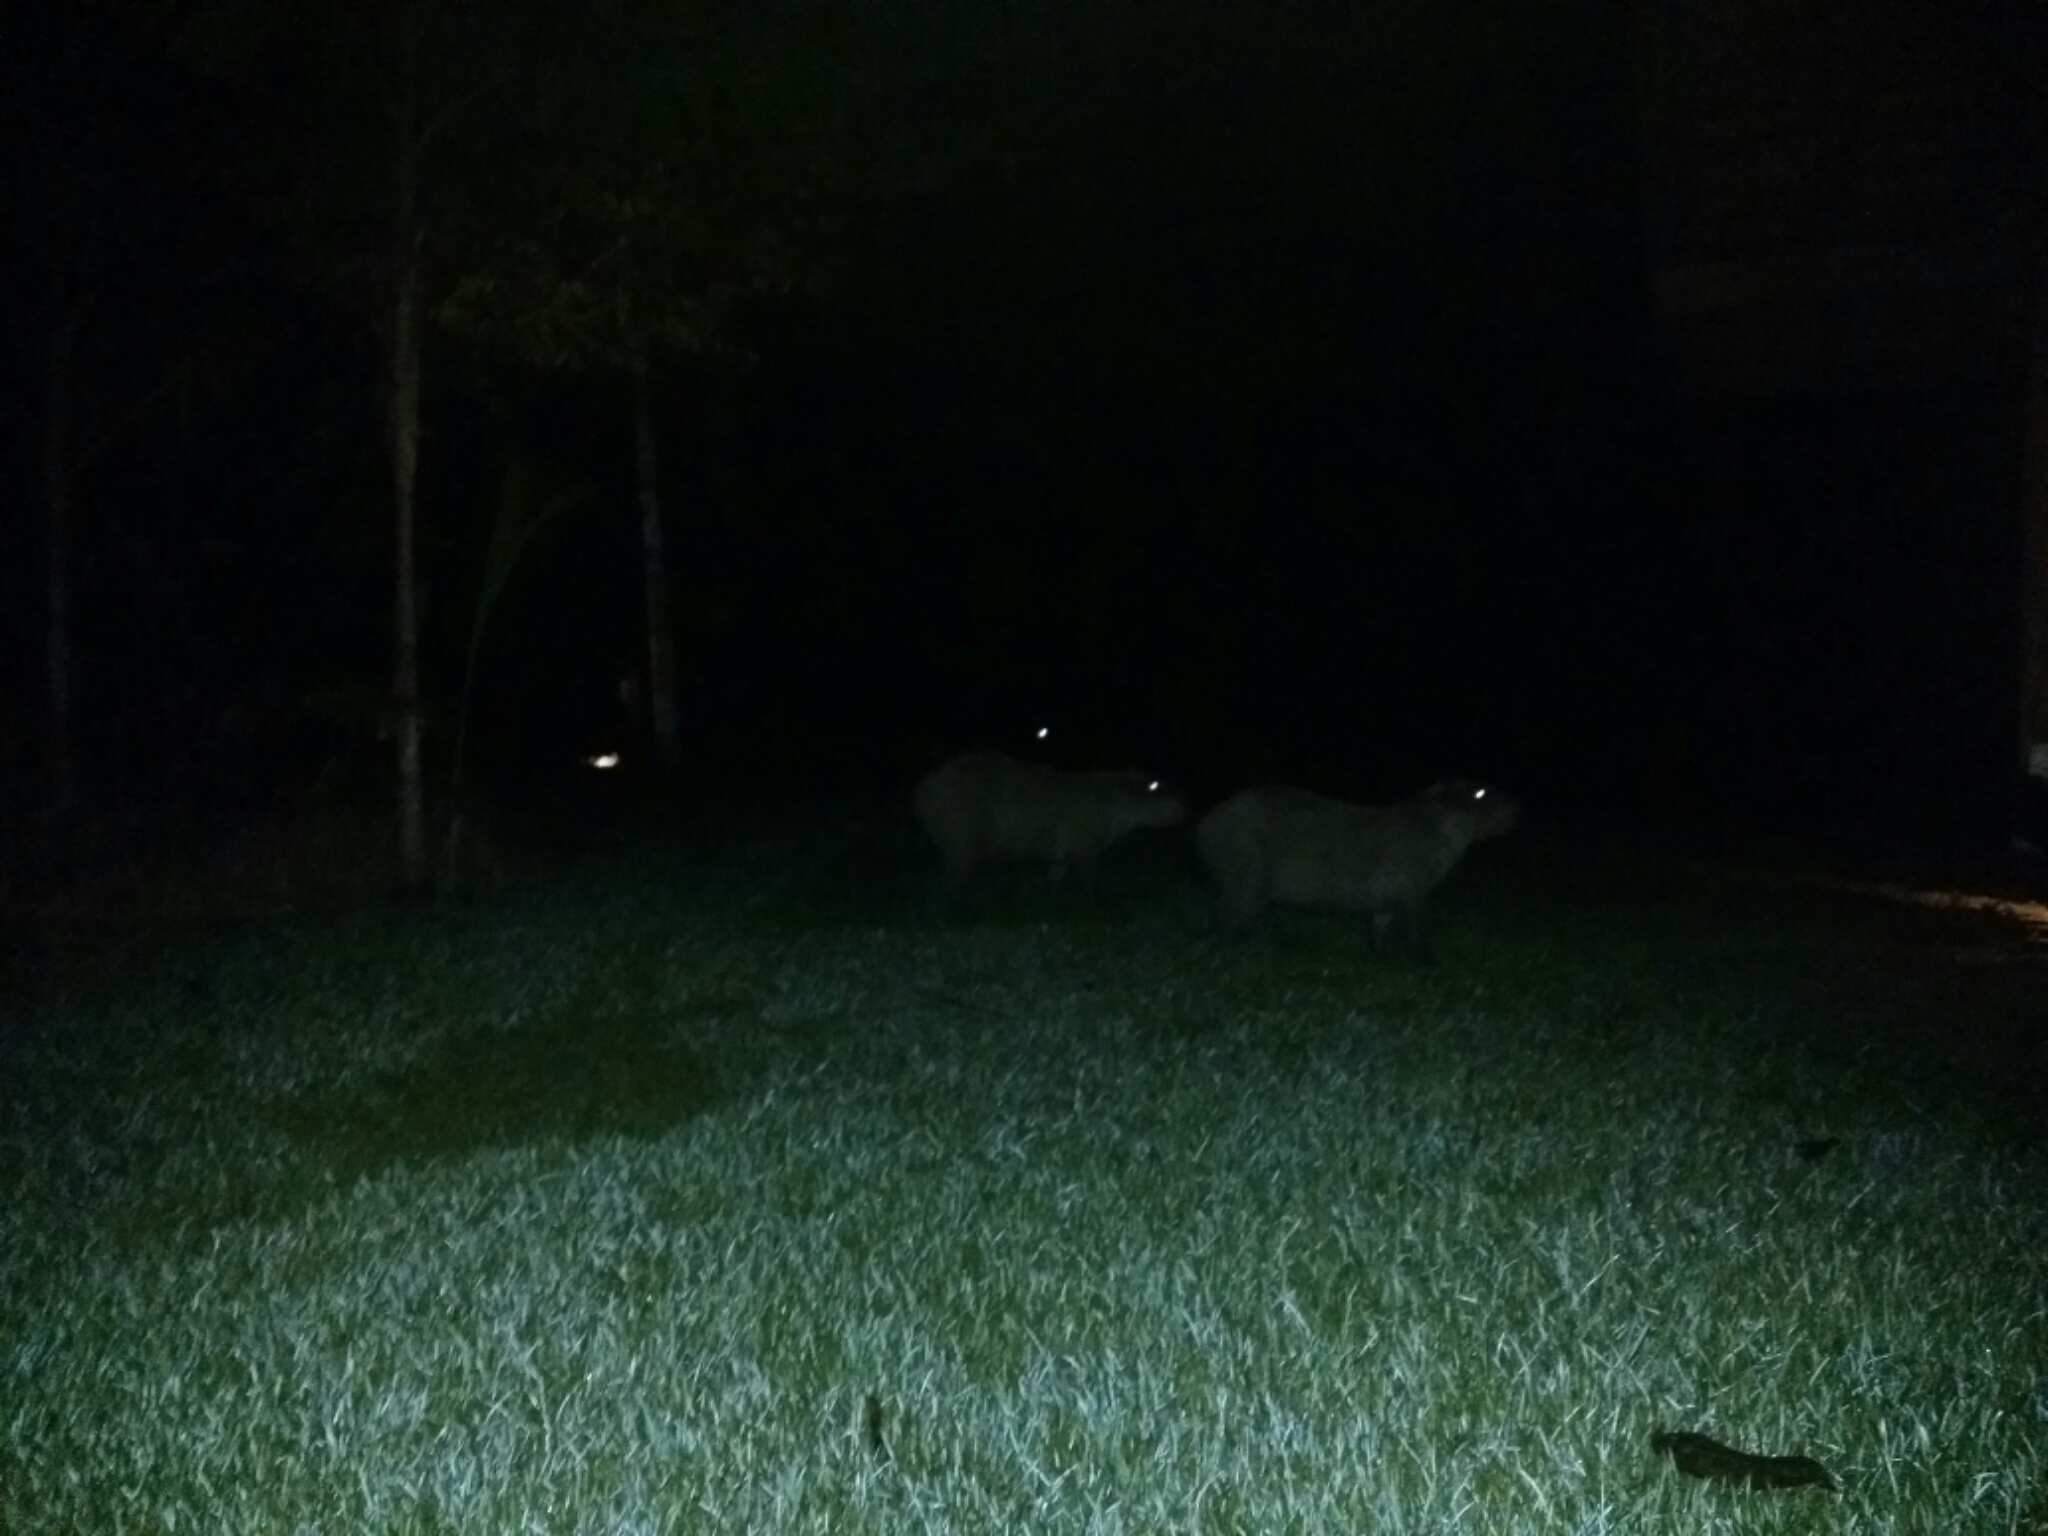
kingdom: Animalia
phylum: Chordata
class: Mammalia
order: Rodentia
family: Caviidae
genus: Hydrochoerus
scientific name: Hydrochoerus hydrochaeris
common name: Capybara
